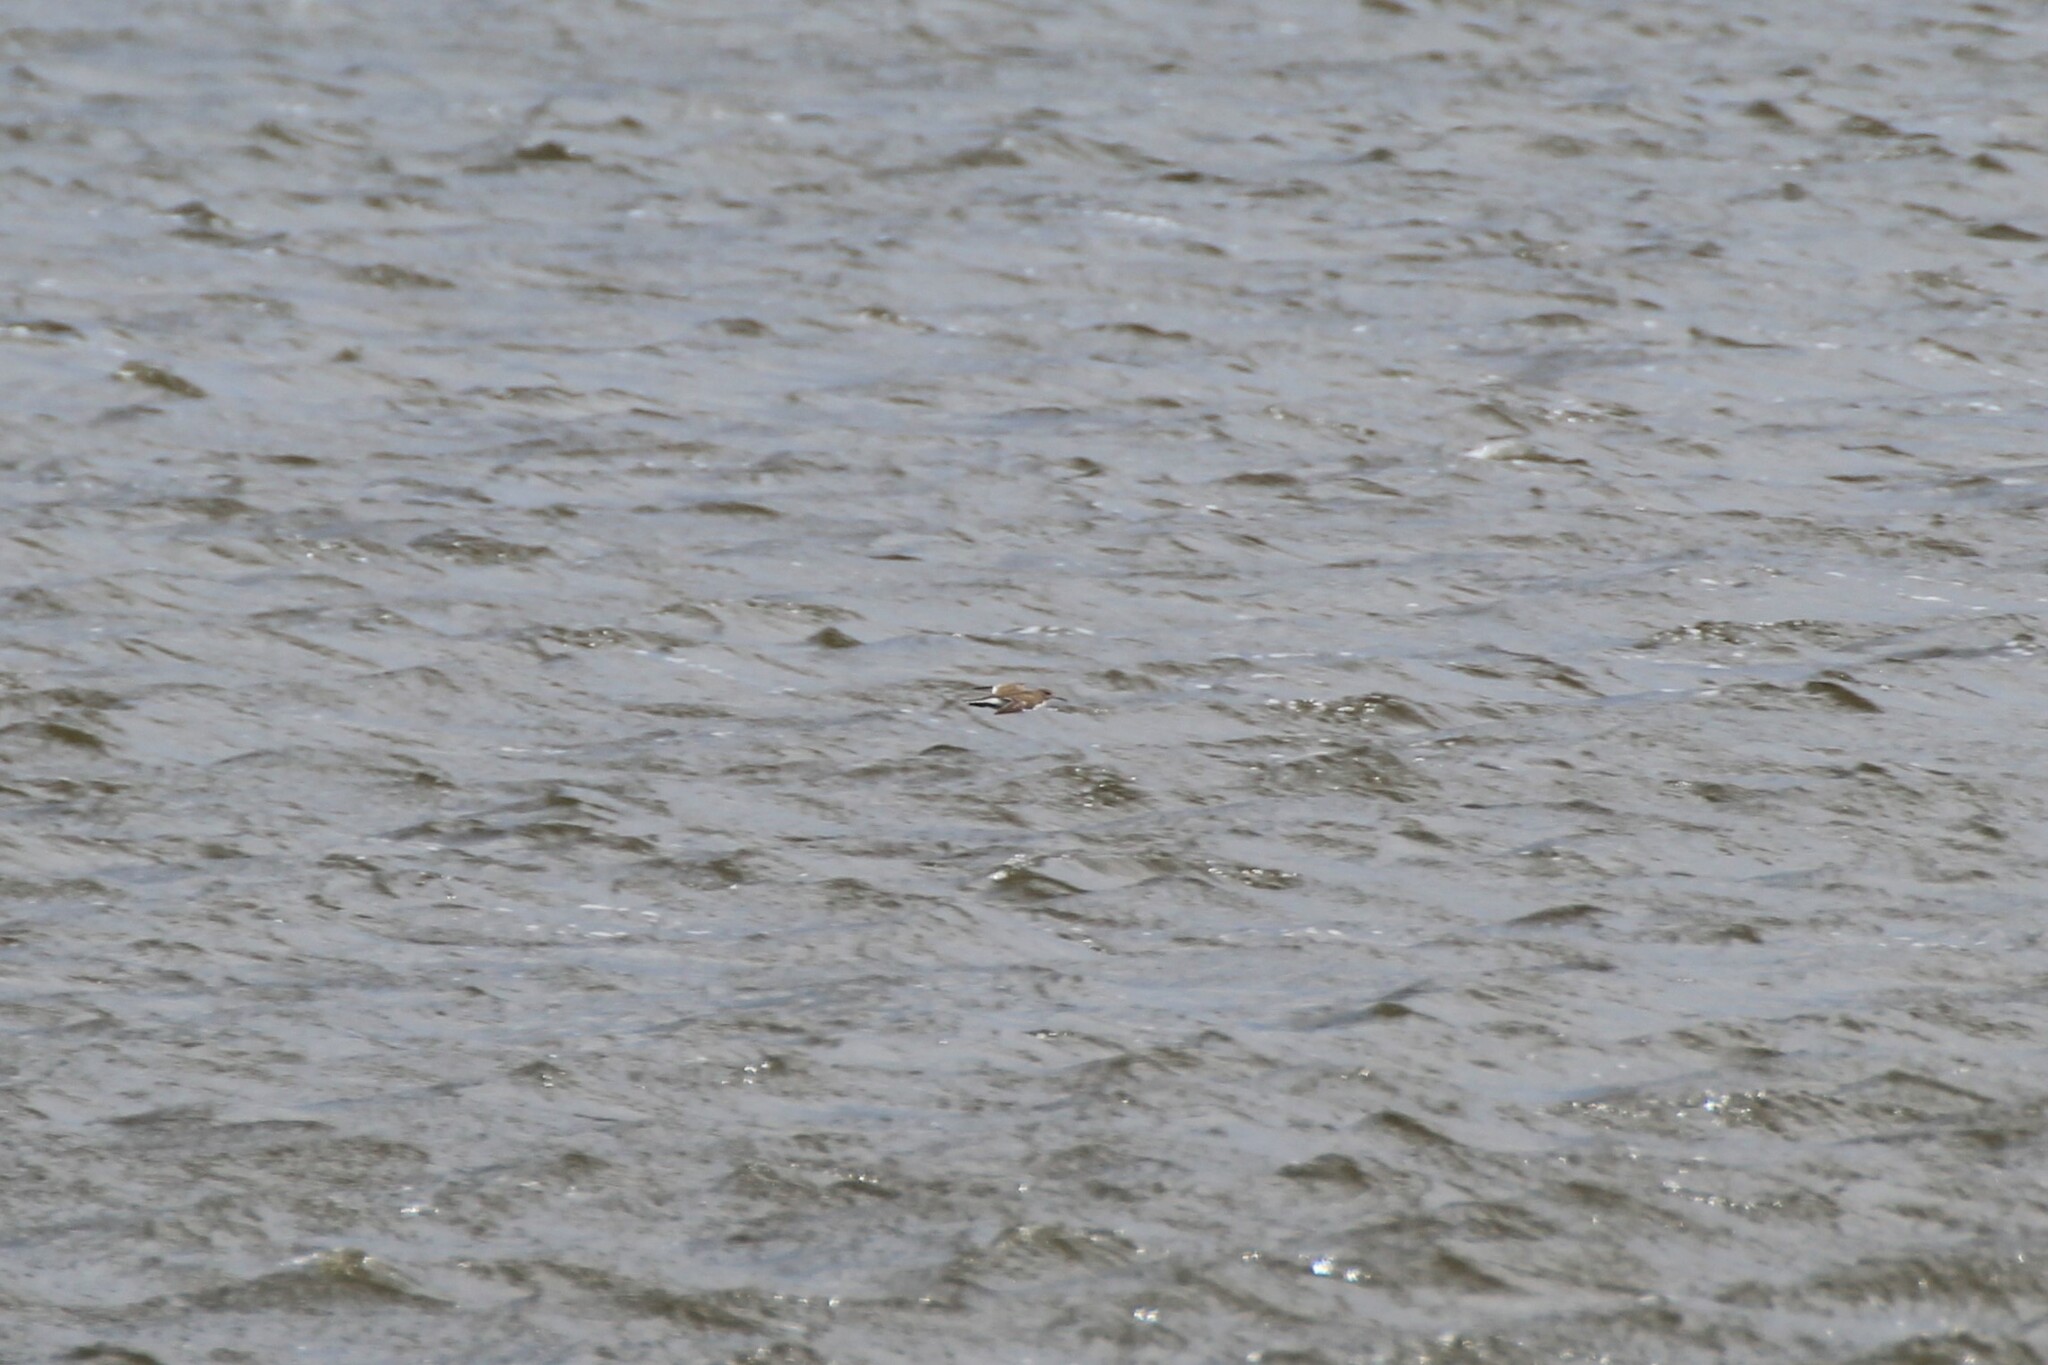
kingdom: Animalia
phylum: Chordata
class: Aves
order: Charadriiformes
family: Scolopacidae
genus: Actitis
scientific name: Actitis hypoleucos
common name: Common sandpiper
